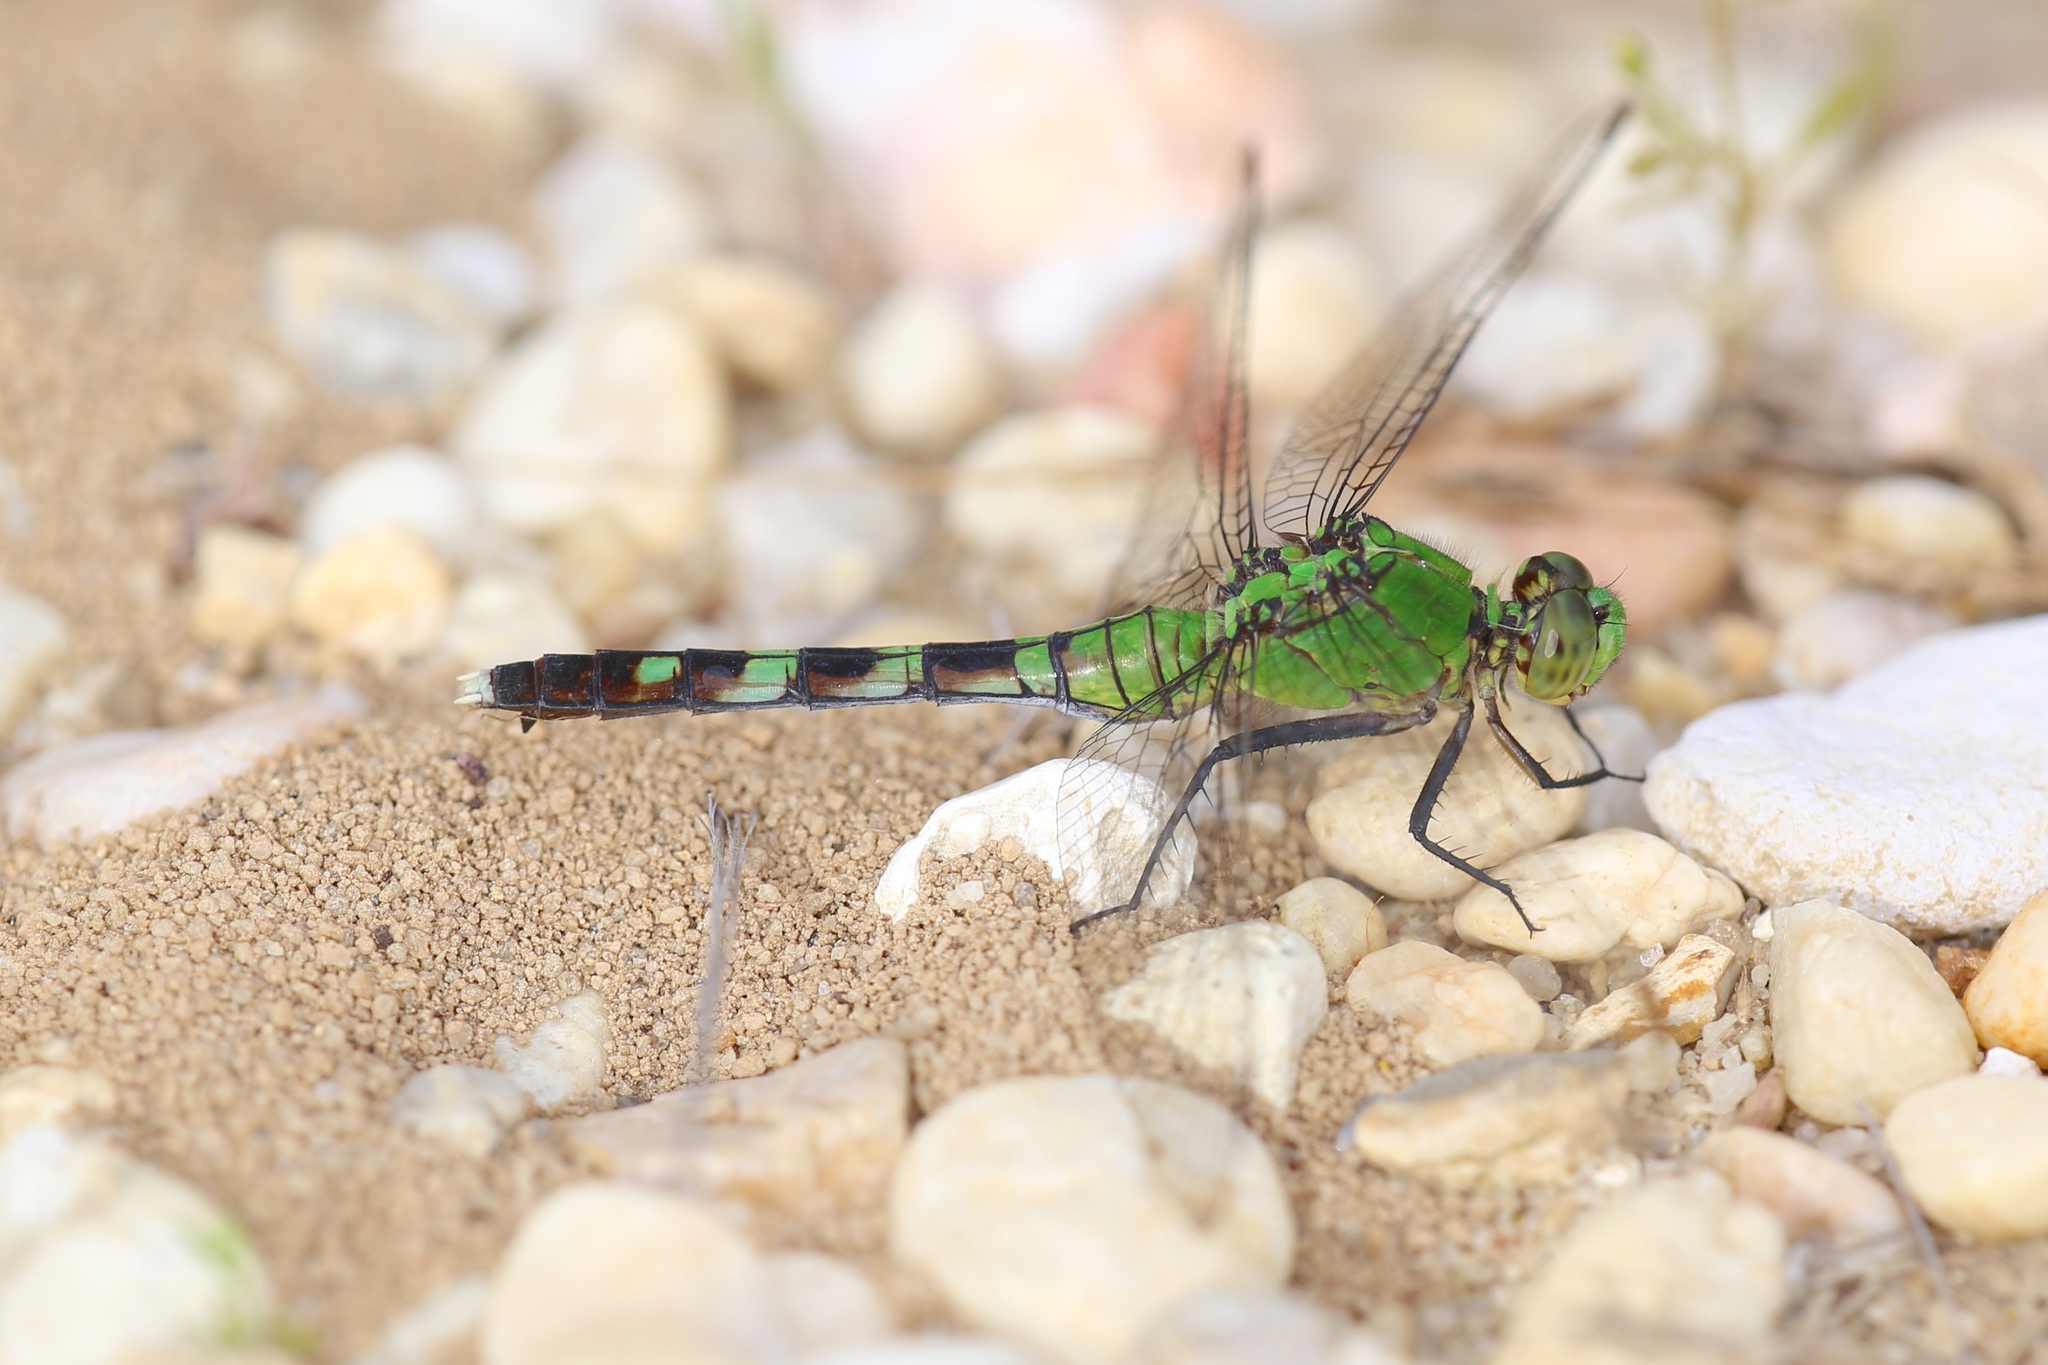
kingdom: Animalia
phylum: Arthropoda
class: Insecta
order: Odonata
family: Libellulidae
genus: Erythemis
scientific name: Erythemis simplicicollis
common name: Eastern pondhawk
